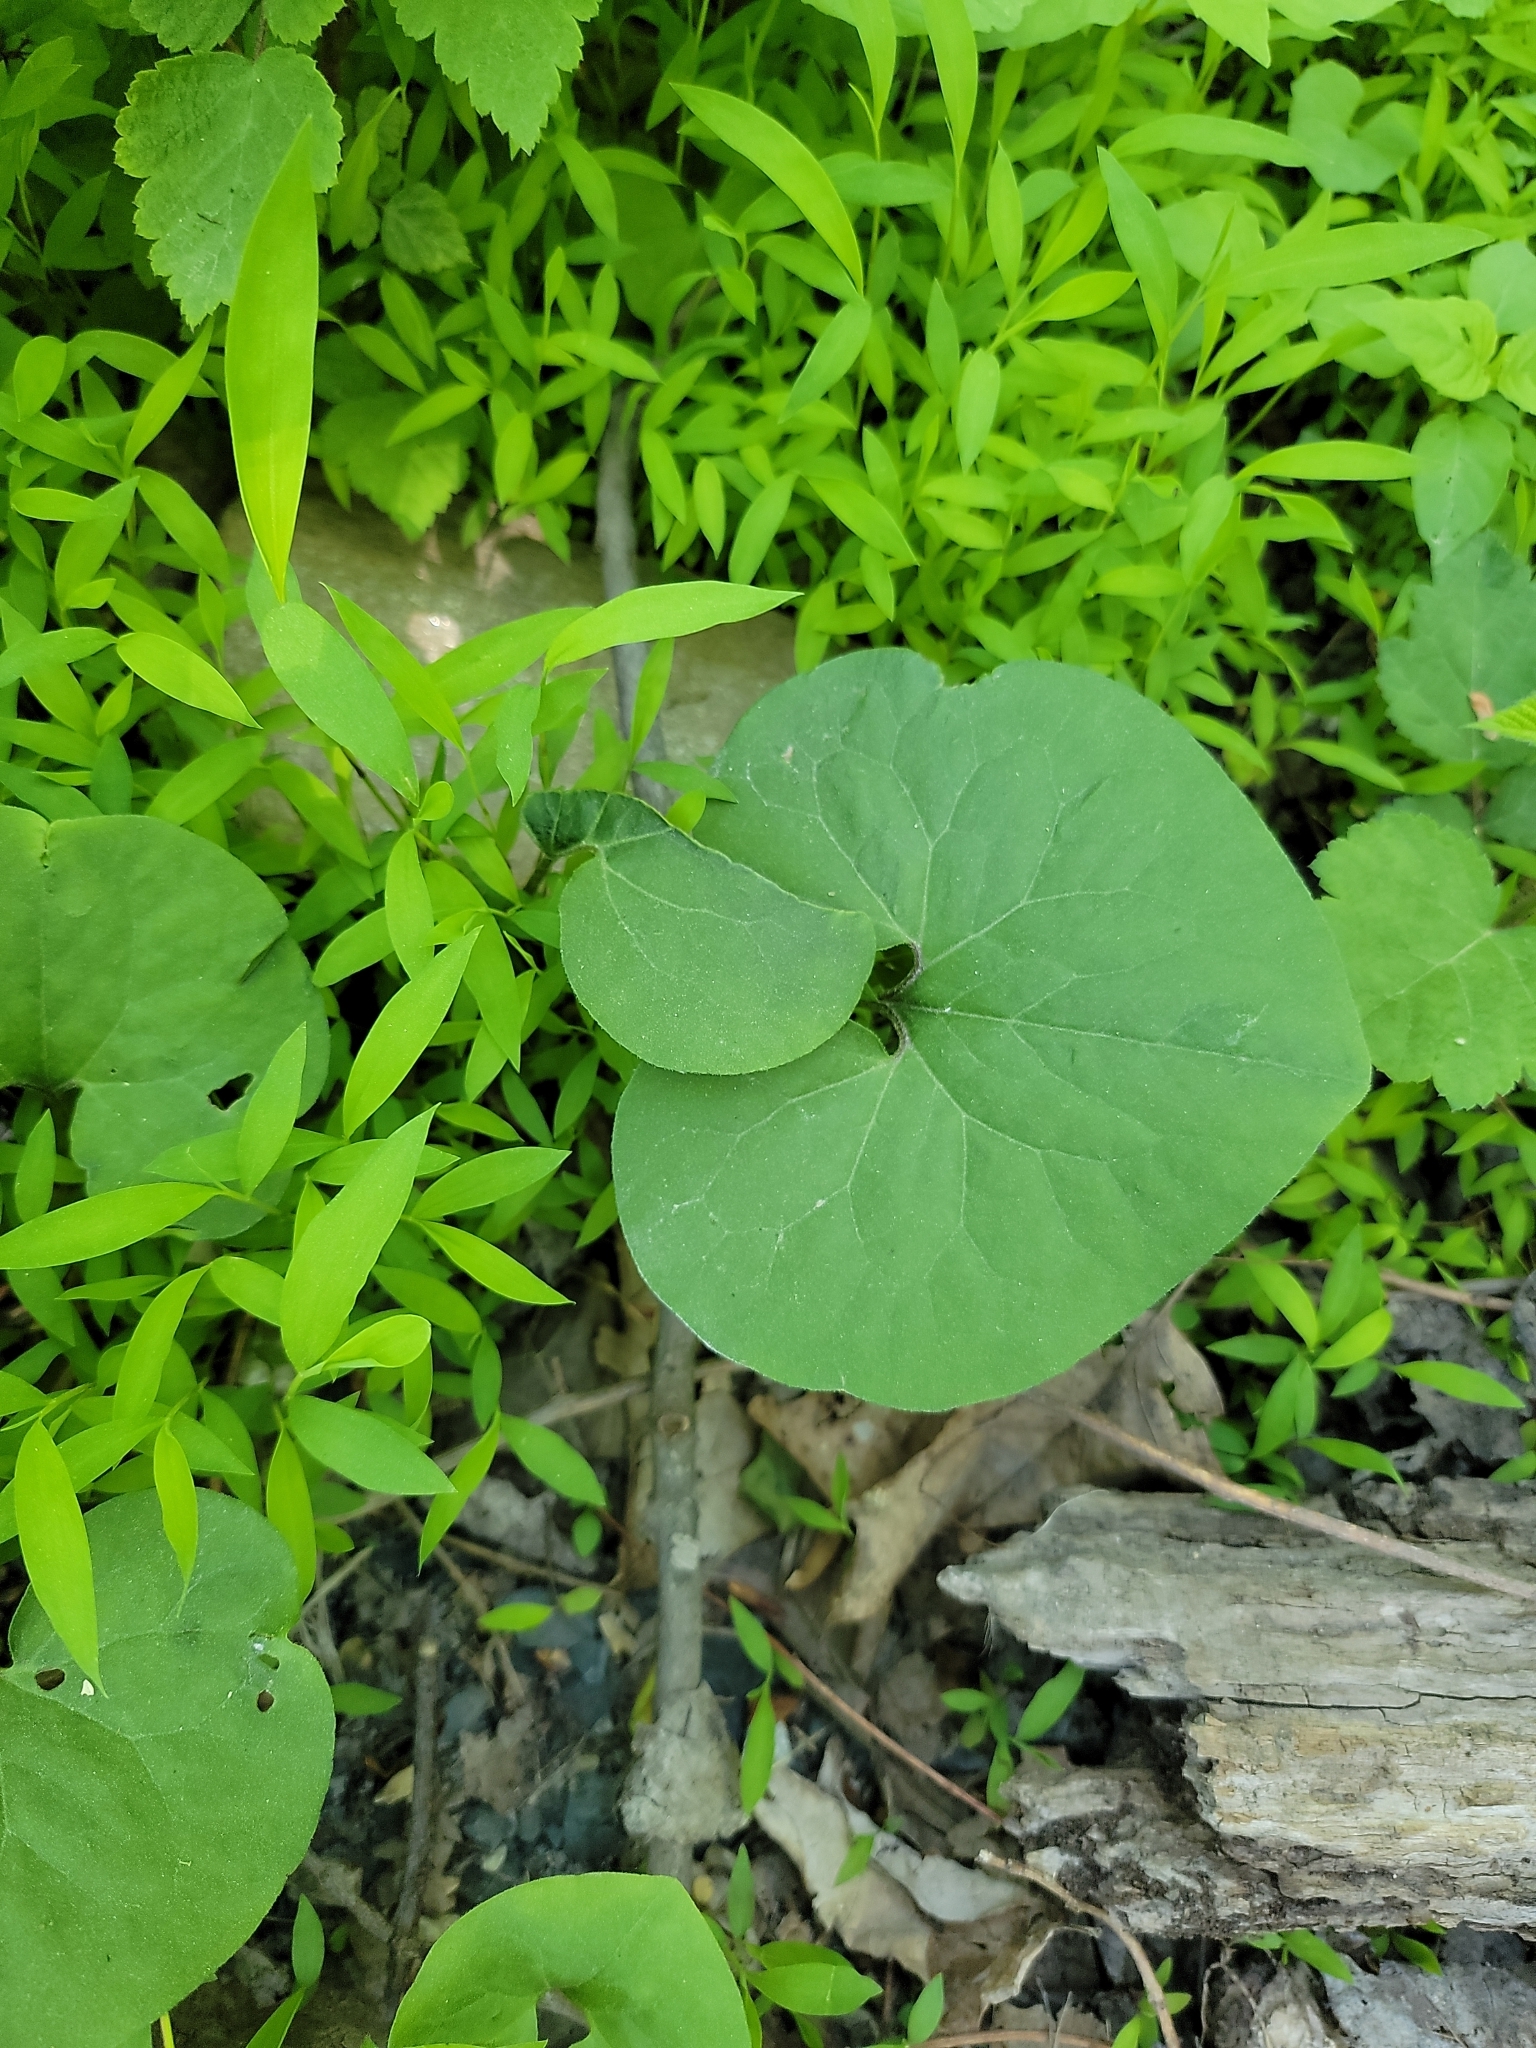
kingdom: Plantae
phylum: Tracheophyta
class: Magnoliopsida
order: Piperales
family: Aristolochiaceae
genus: Asarum
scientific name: Asarum canadense
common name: Wild ginger
